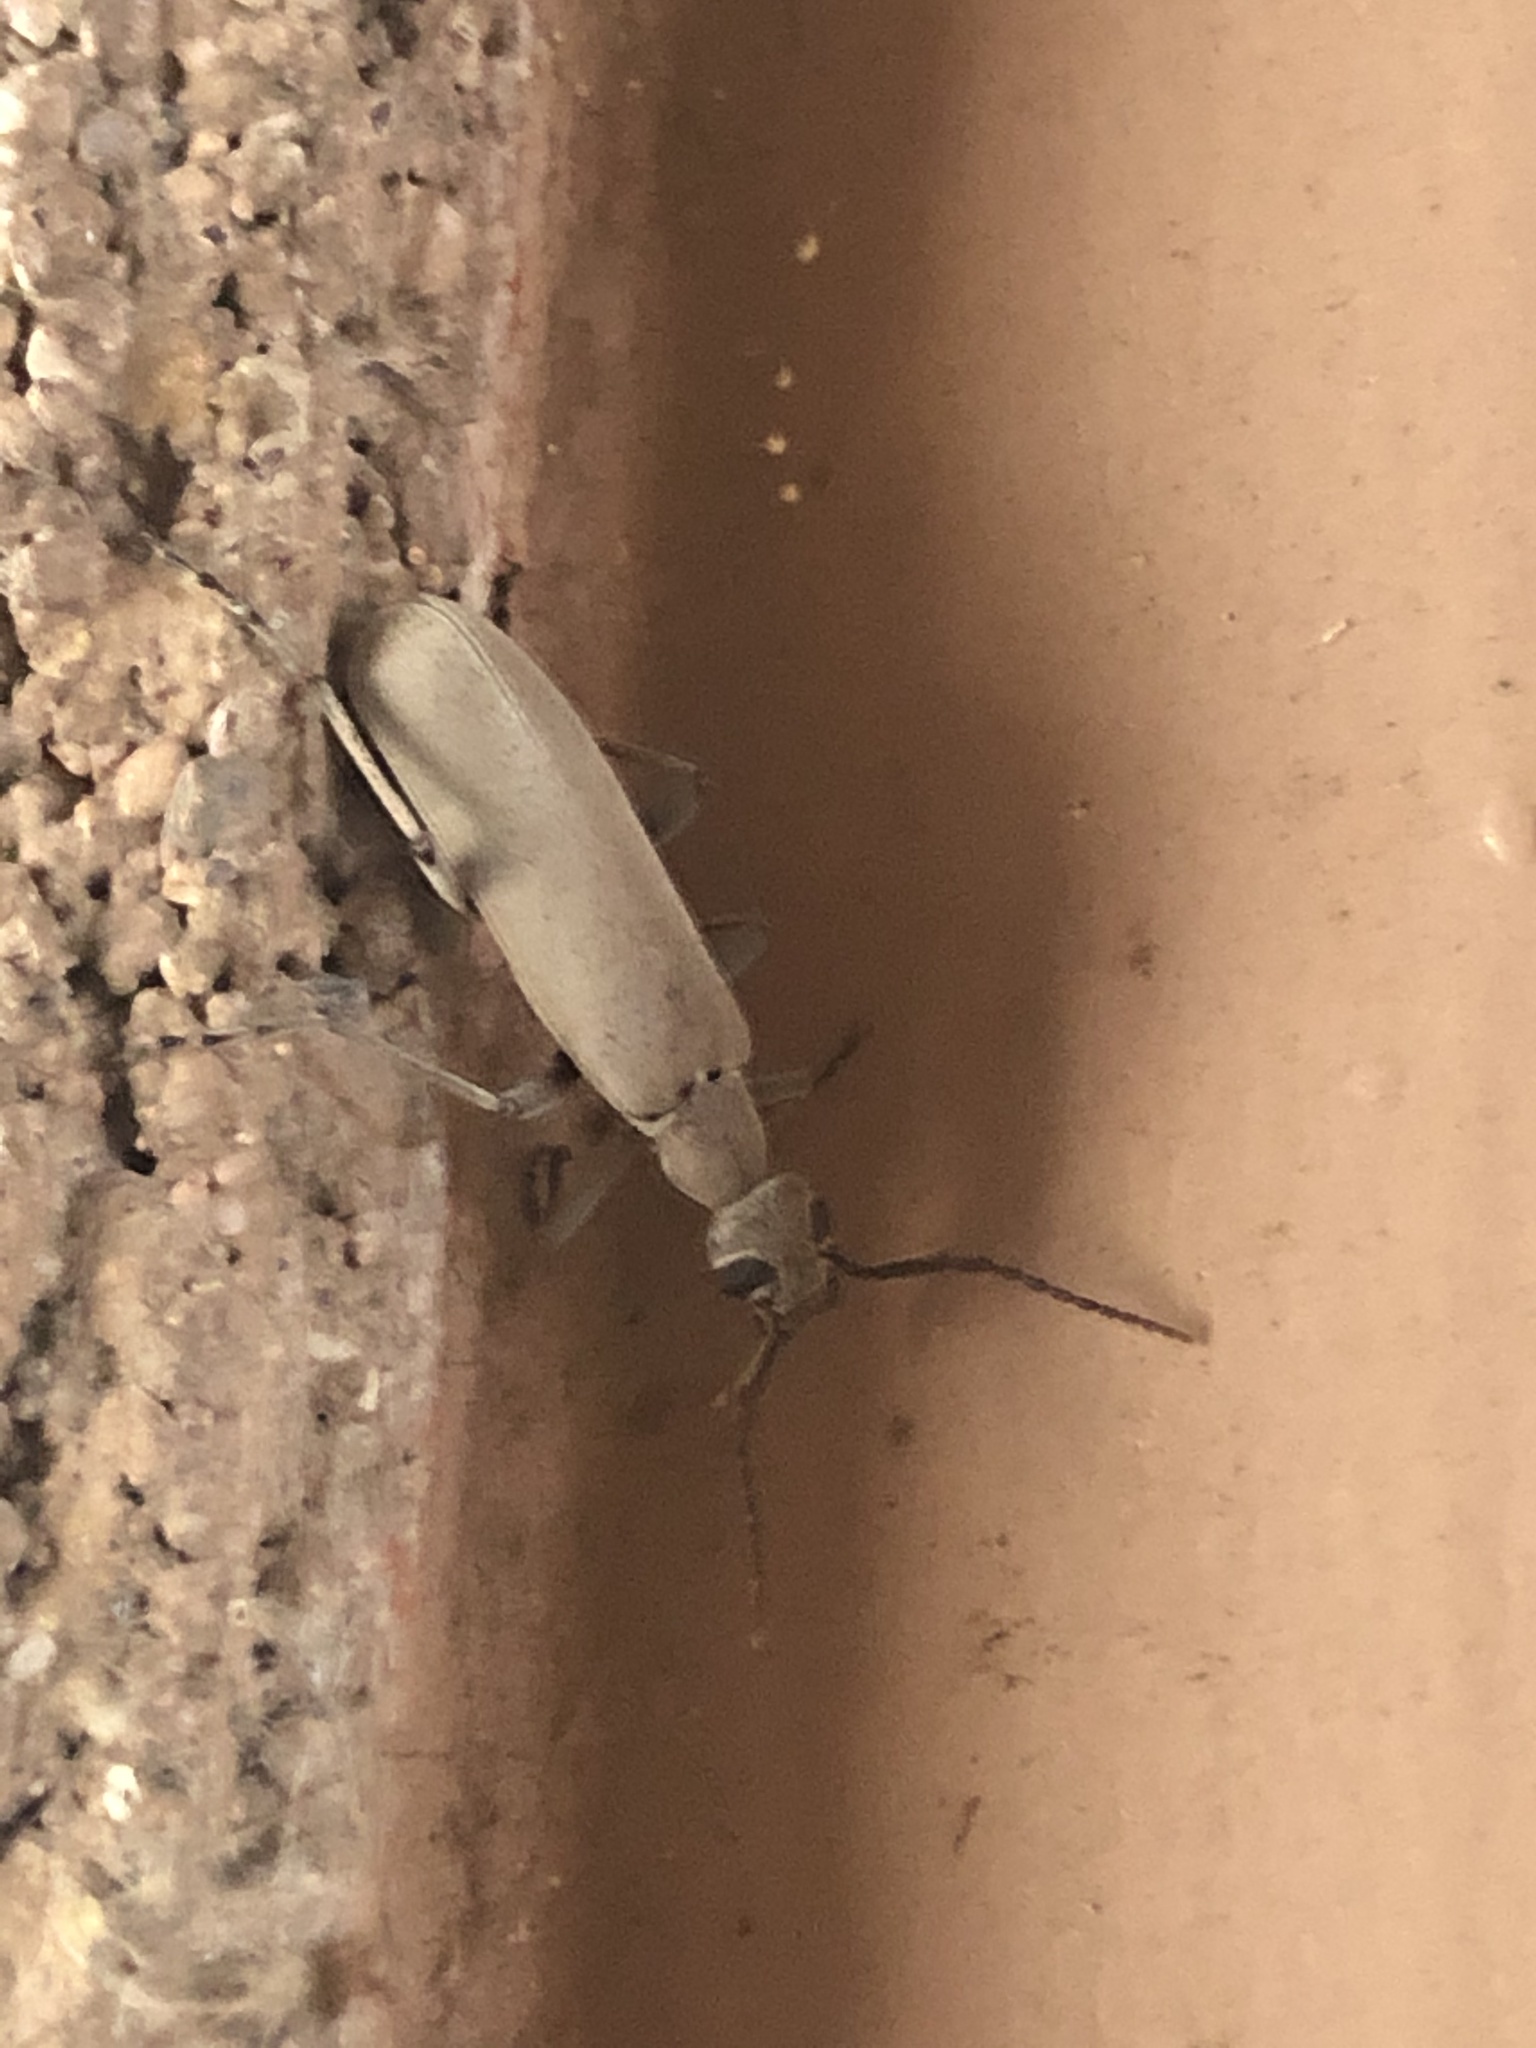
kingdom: Animalia
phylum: Arthropoda
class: Insecta
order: Coleoptera
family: Meloidae
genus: Epicauta
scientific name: Epicauta arizonica
